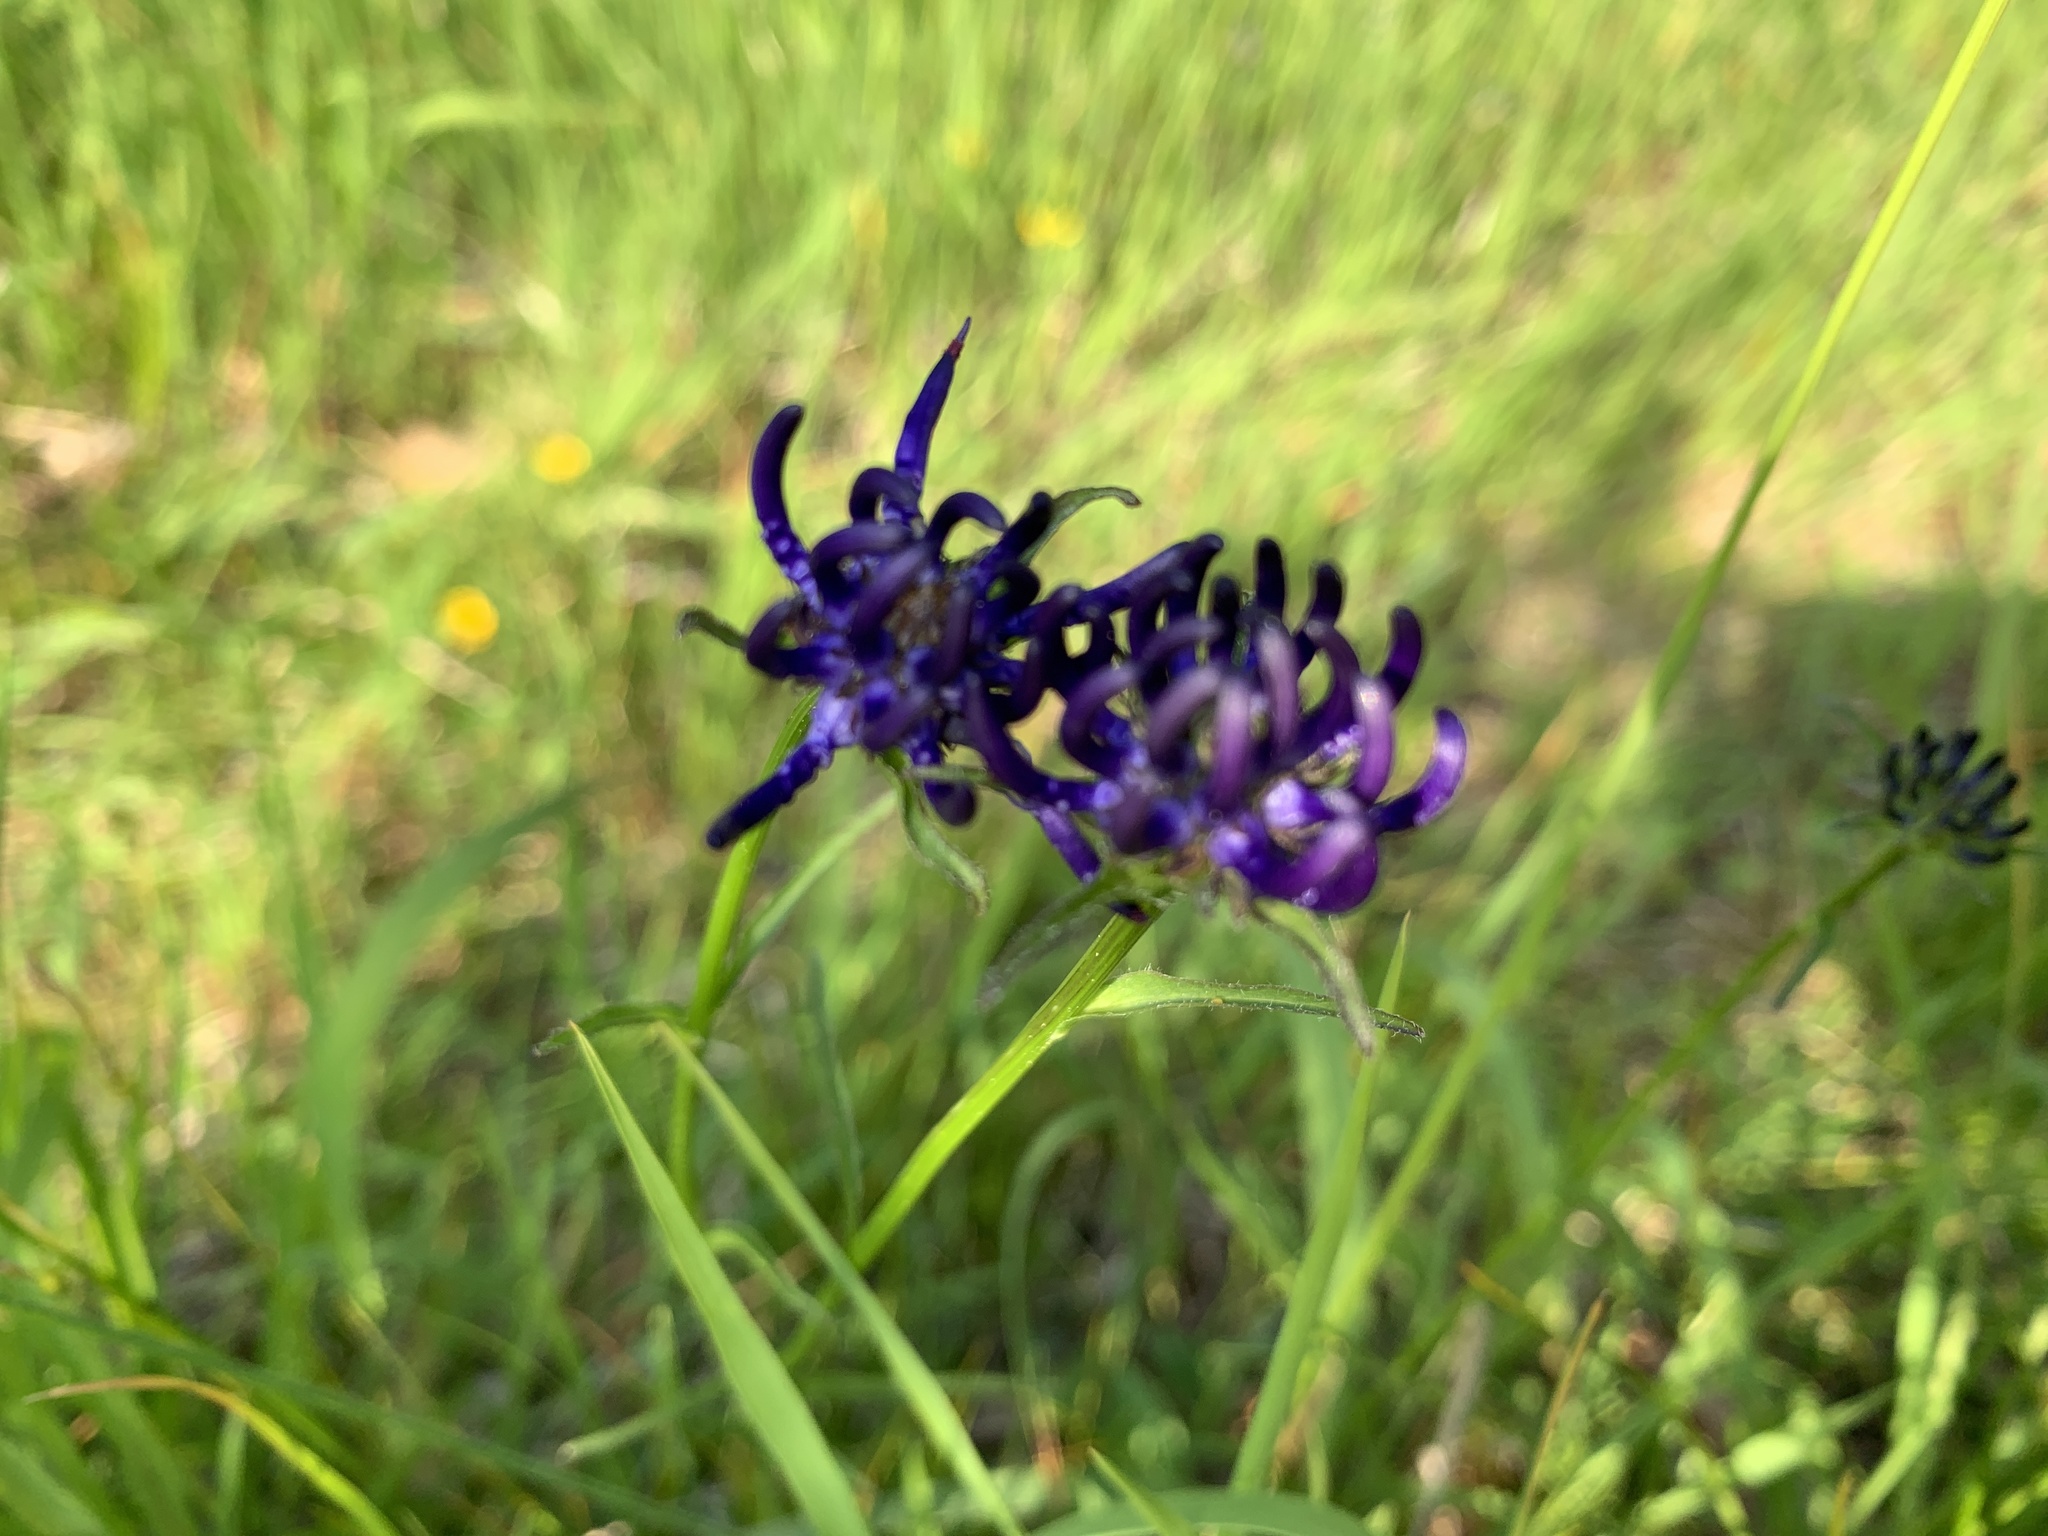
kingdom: Plantae
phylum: Tracheophyta
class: Magnoliopsida
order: Asterales
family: Campanulaceae
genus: Phyteuma
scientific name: Phyteuma orbiculare
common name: Round-headed rampion
